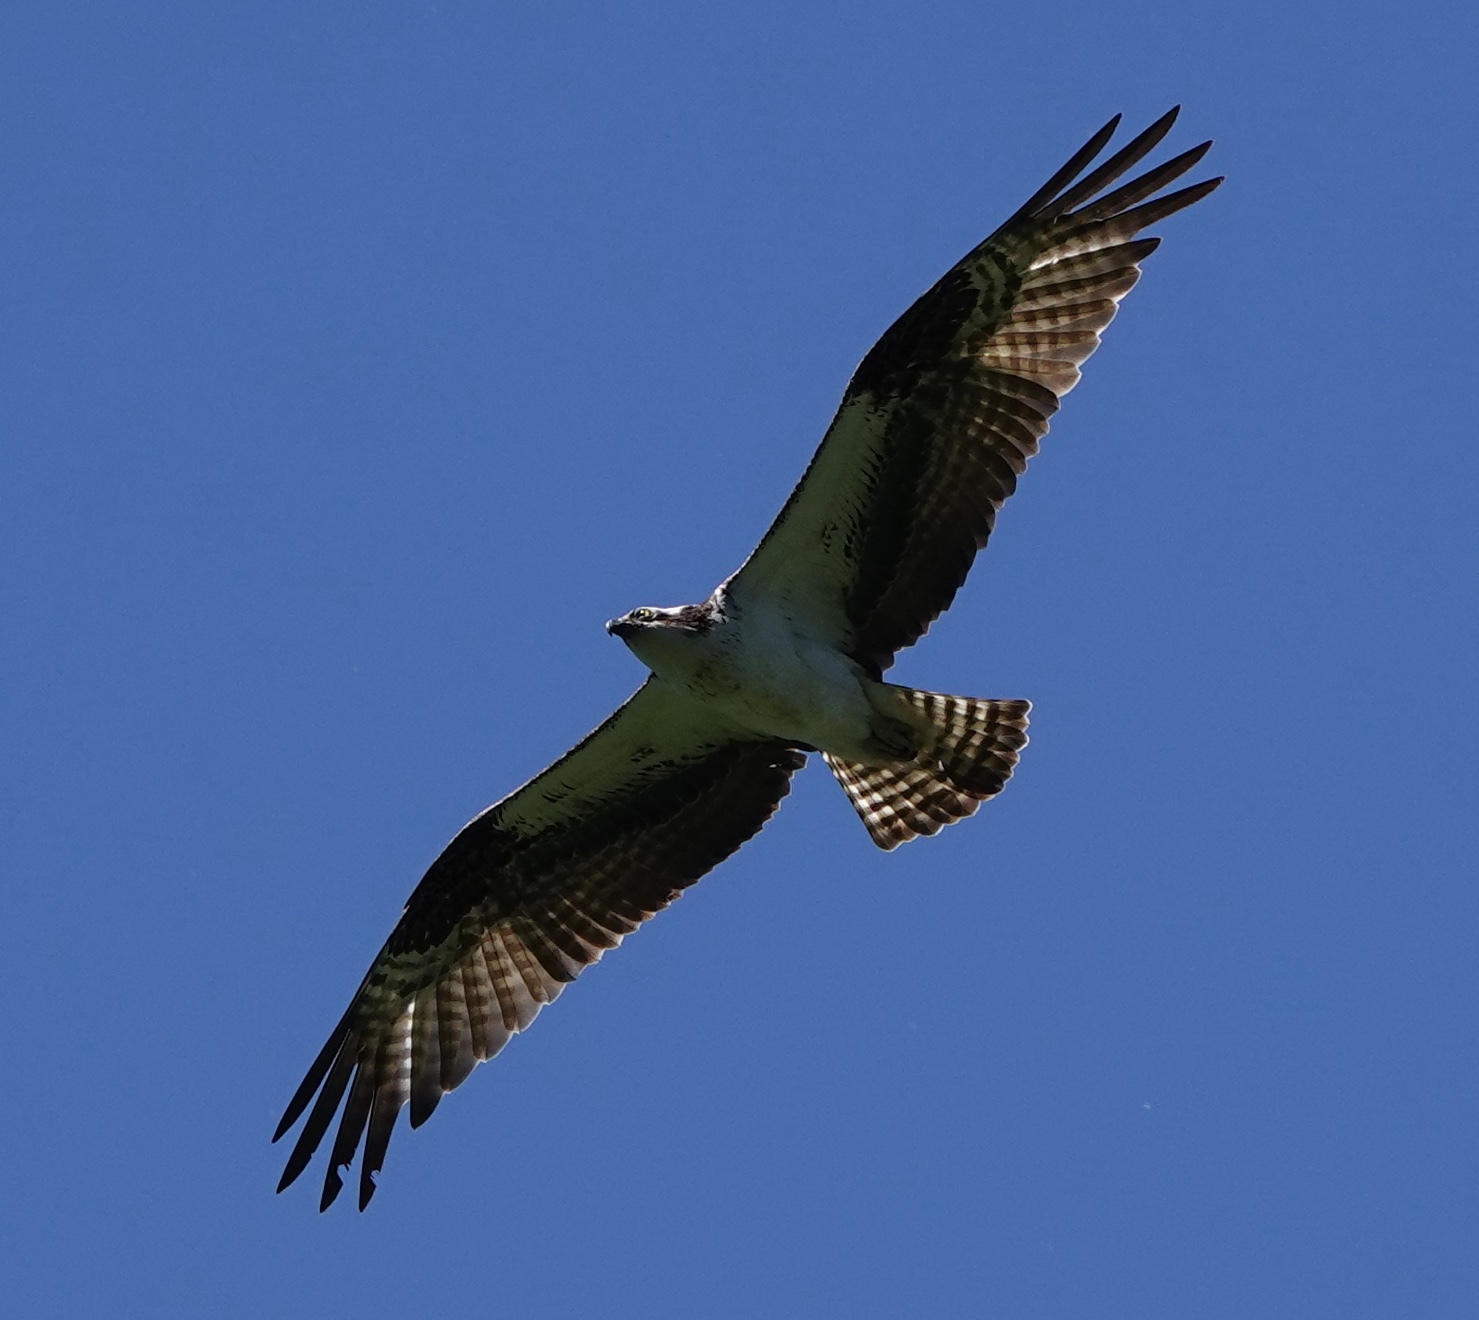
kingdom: Animalia
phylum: Chordata
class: Aves
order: Accipitriformes
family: Pandionidae
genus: Pandion
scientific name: Pandion haliaetus
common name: Osprey
